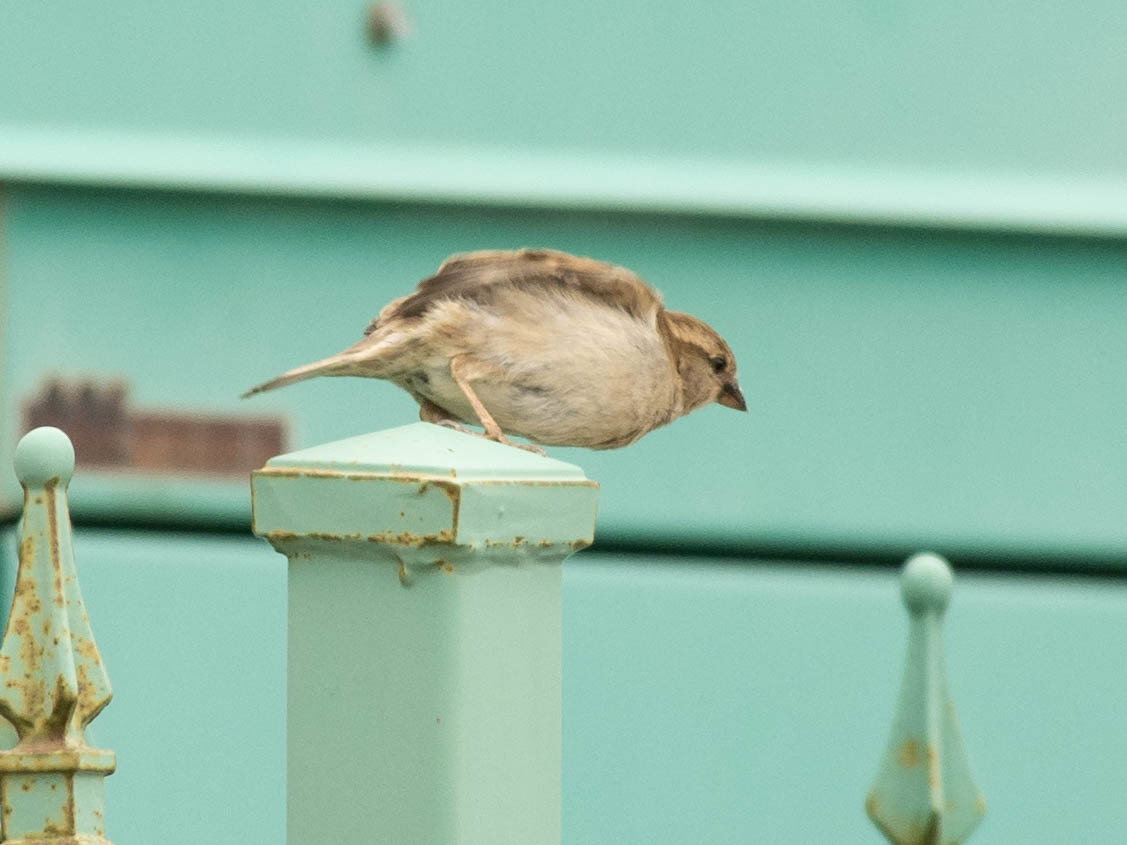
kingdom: Animalia
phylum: Chordata
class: Aves
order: Passeriformes
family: Passeridae
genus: Passer
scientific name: Passer domesticus
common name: House sparrow
